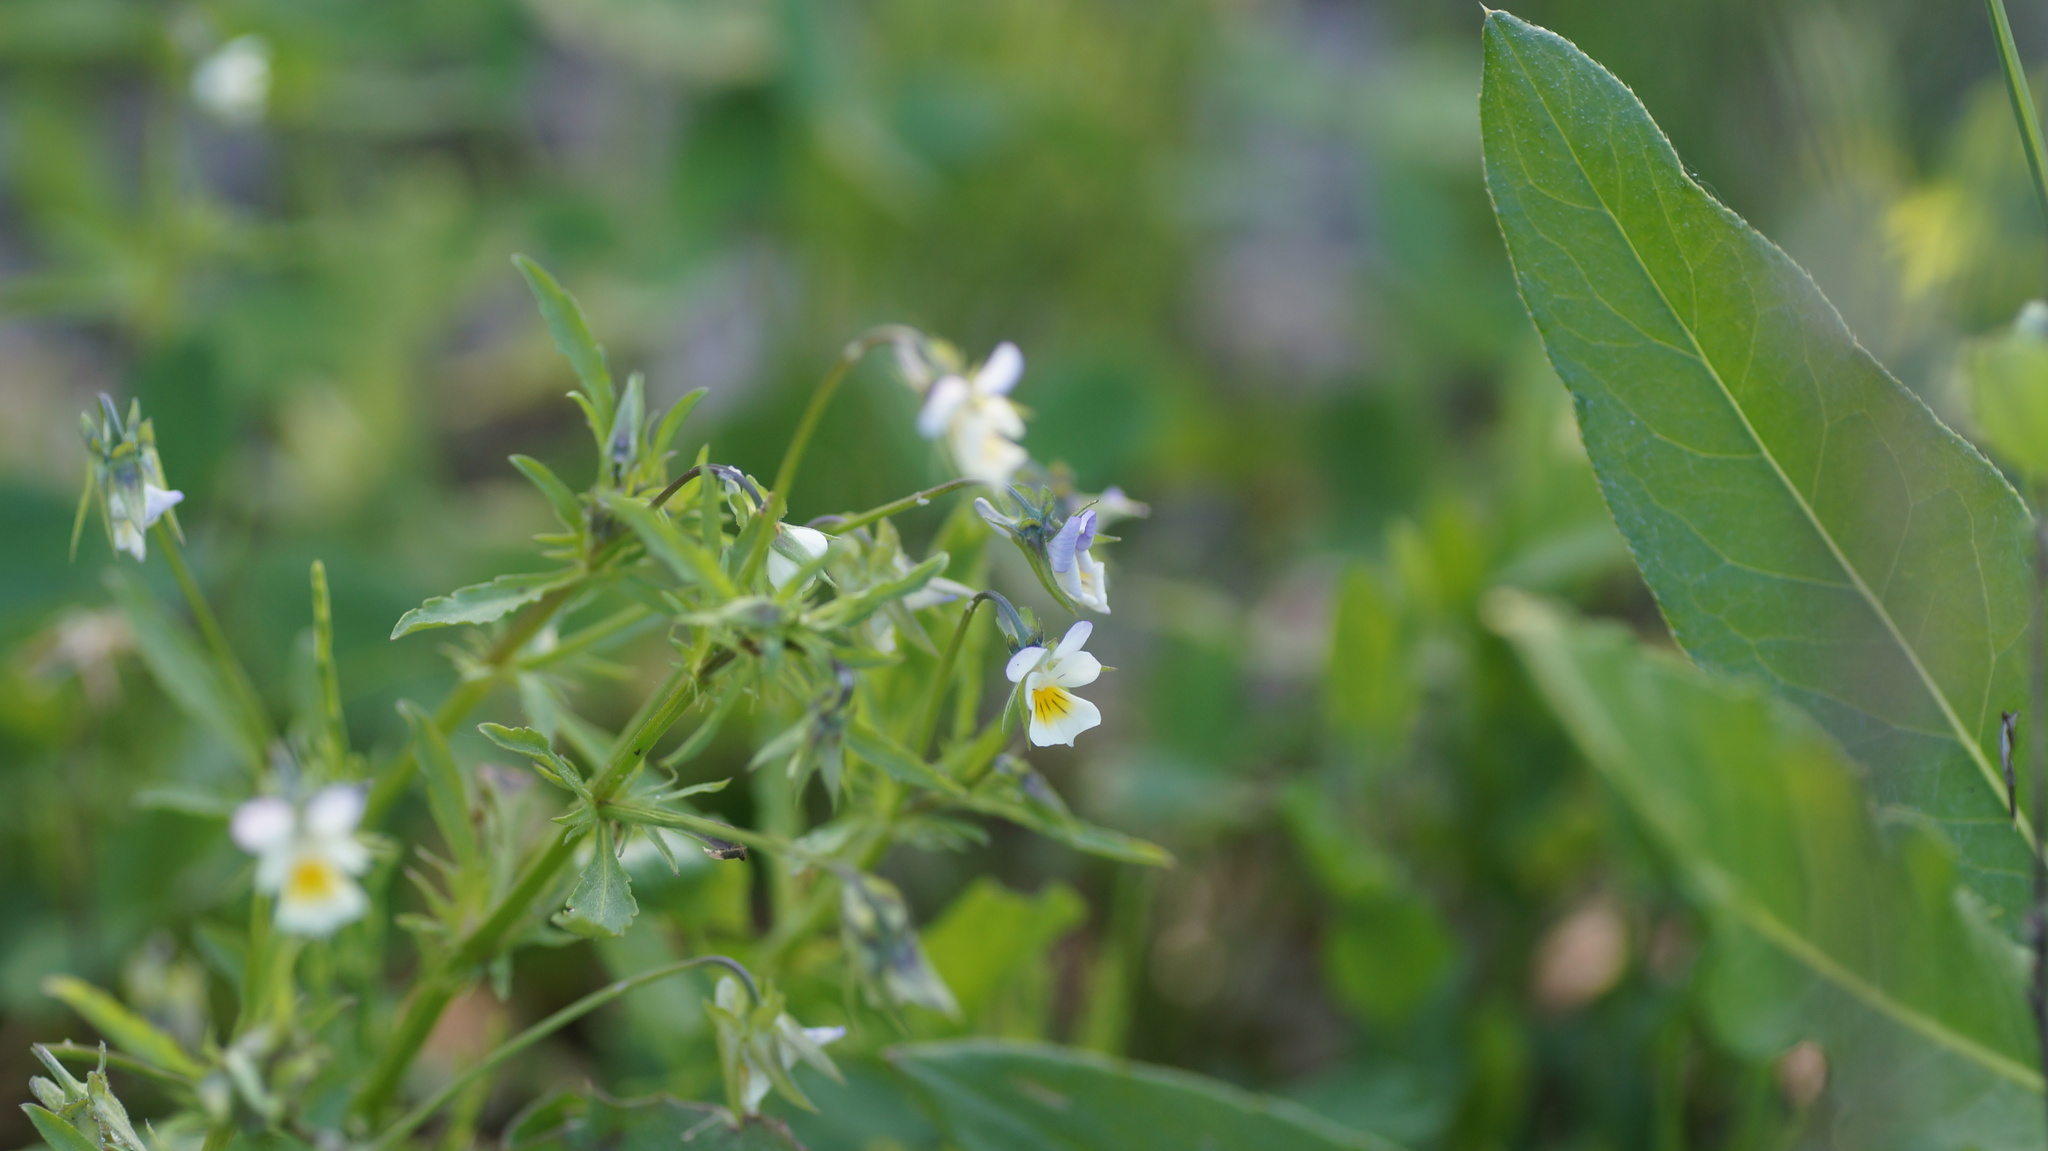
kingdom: Plantae
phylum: Tracheophyta
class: Magnoliopsida
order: Malpighiales
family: Violaceae
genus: Viola
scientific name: Viola arvensis
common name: Field pansy
